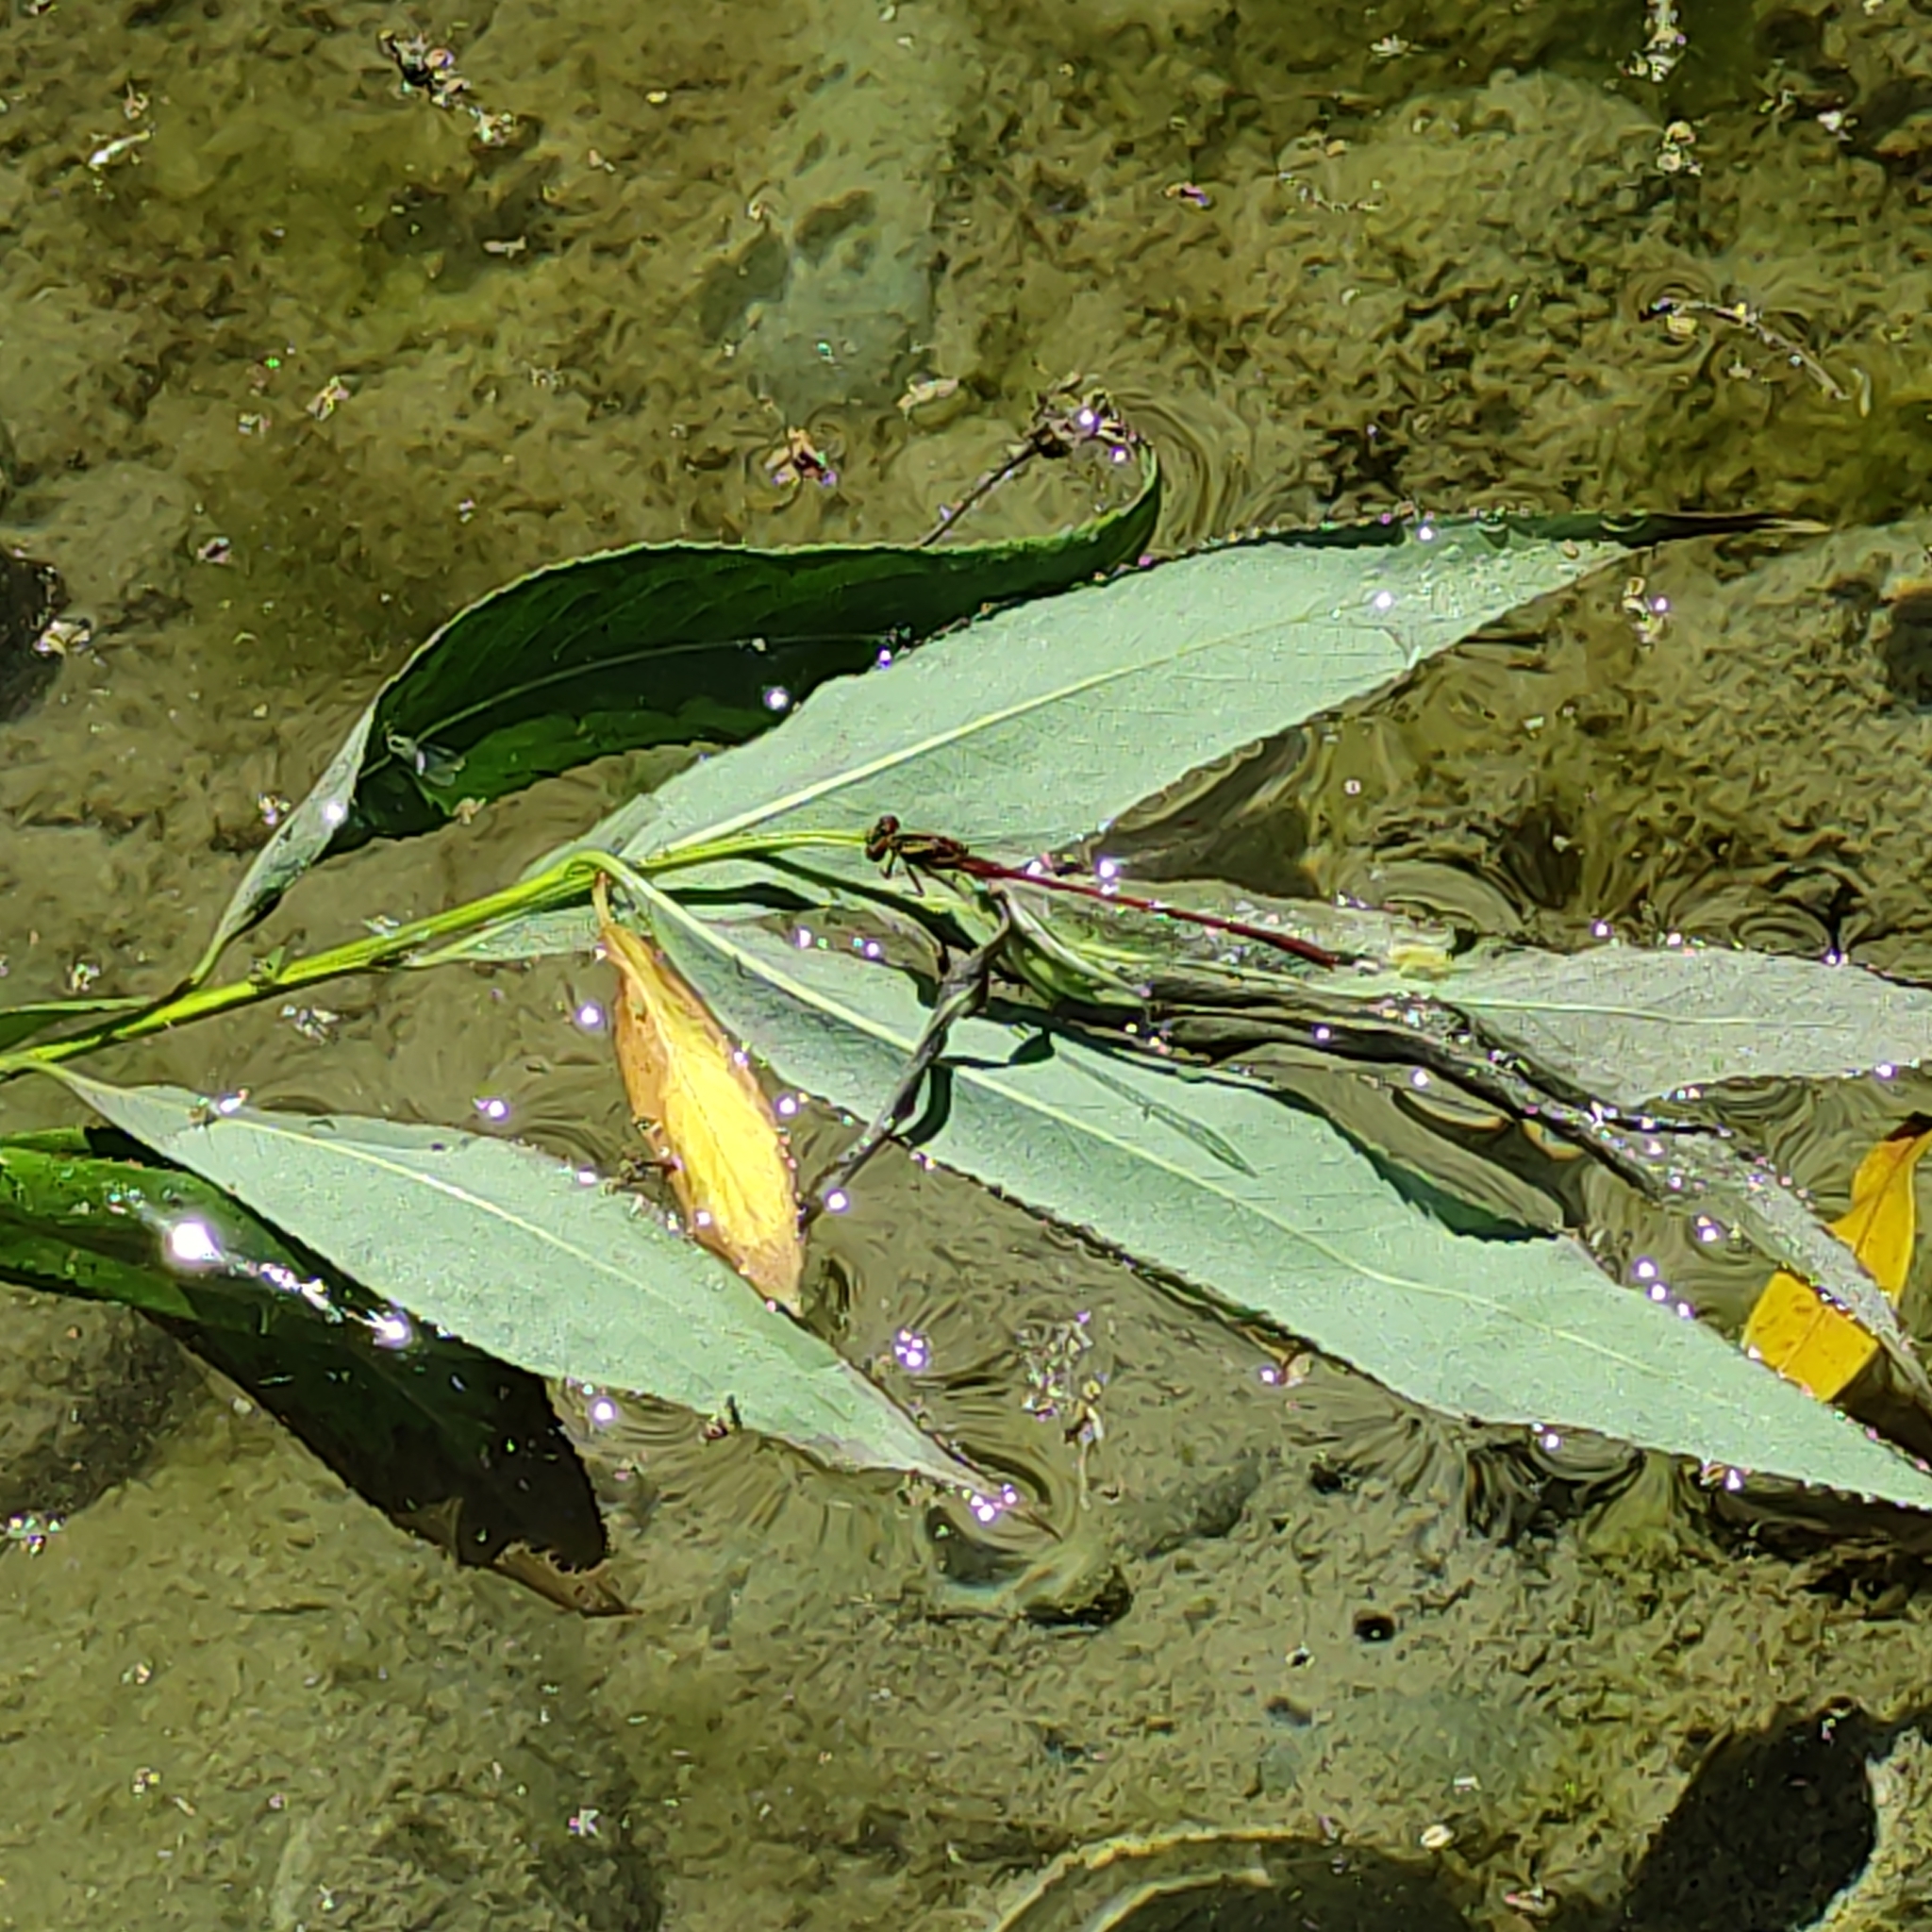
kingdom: Animalia
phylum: Arthropoda
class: Insecta
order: Odonata
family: Coenagrionidae
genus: Xanthocnemis
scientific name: Xanthocnemis zealandica
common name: Common redcoat damselfly
